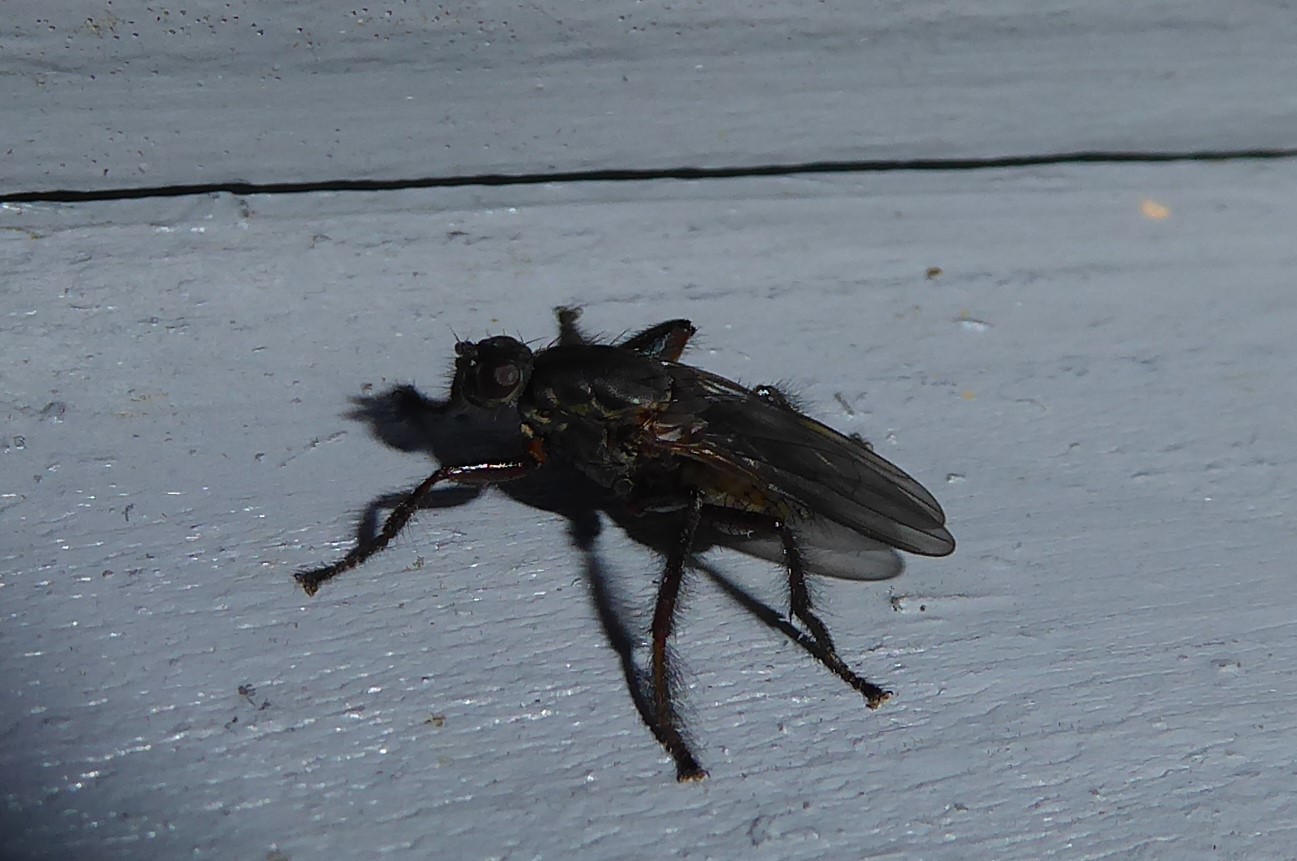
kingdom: Animalia
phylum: Arthropoda
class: Insecta
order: Diptera
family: Coelopidae
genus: Chaetocoelopa
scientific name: Chaetocoelopa littoralis
